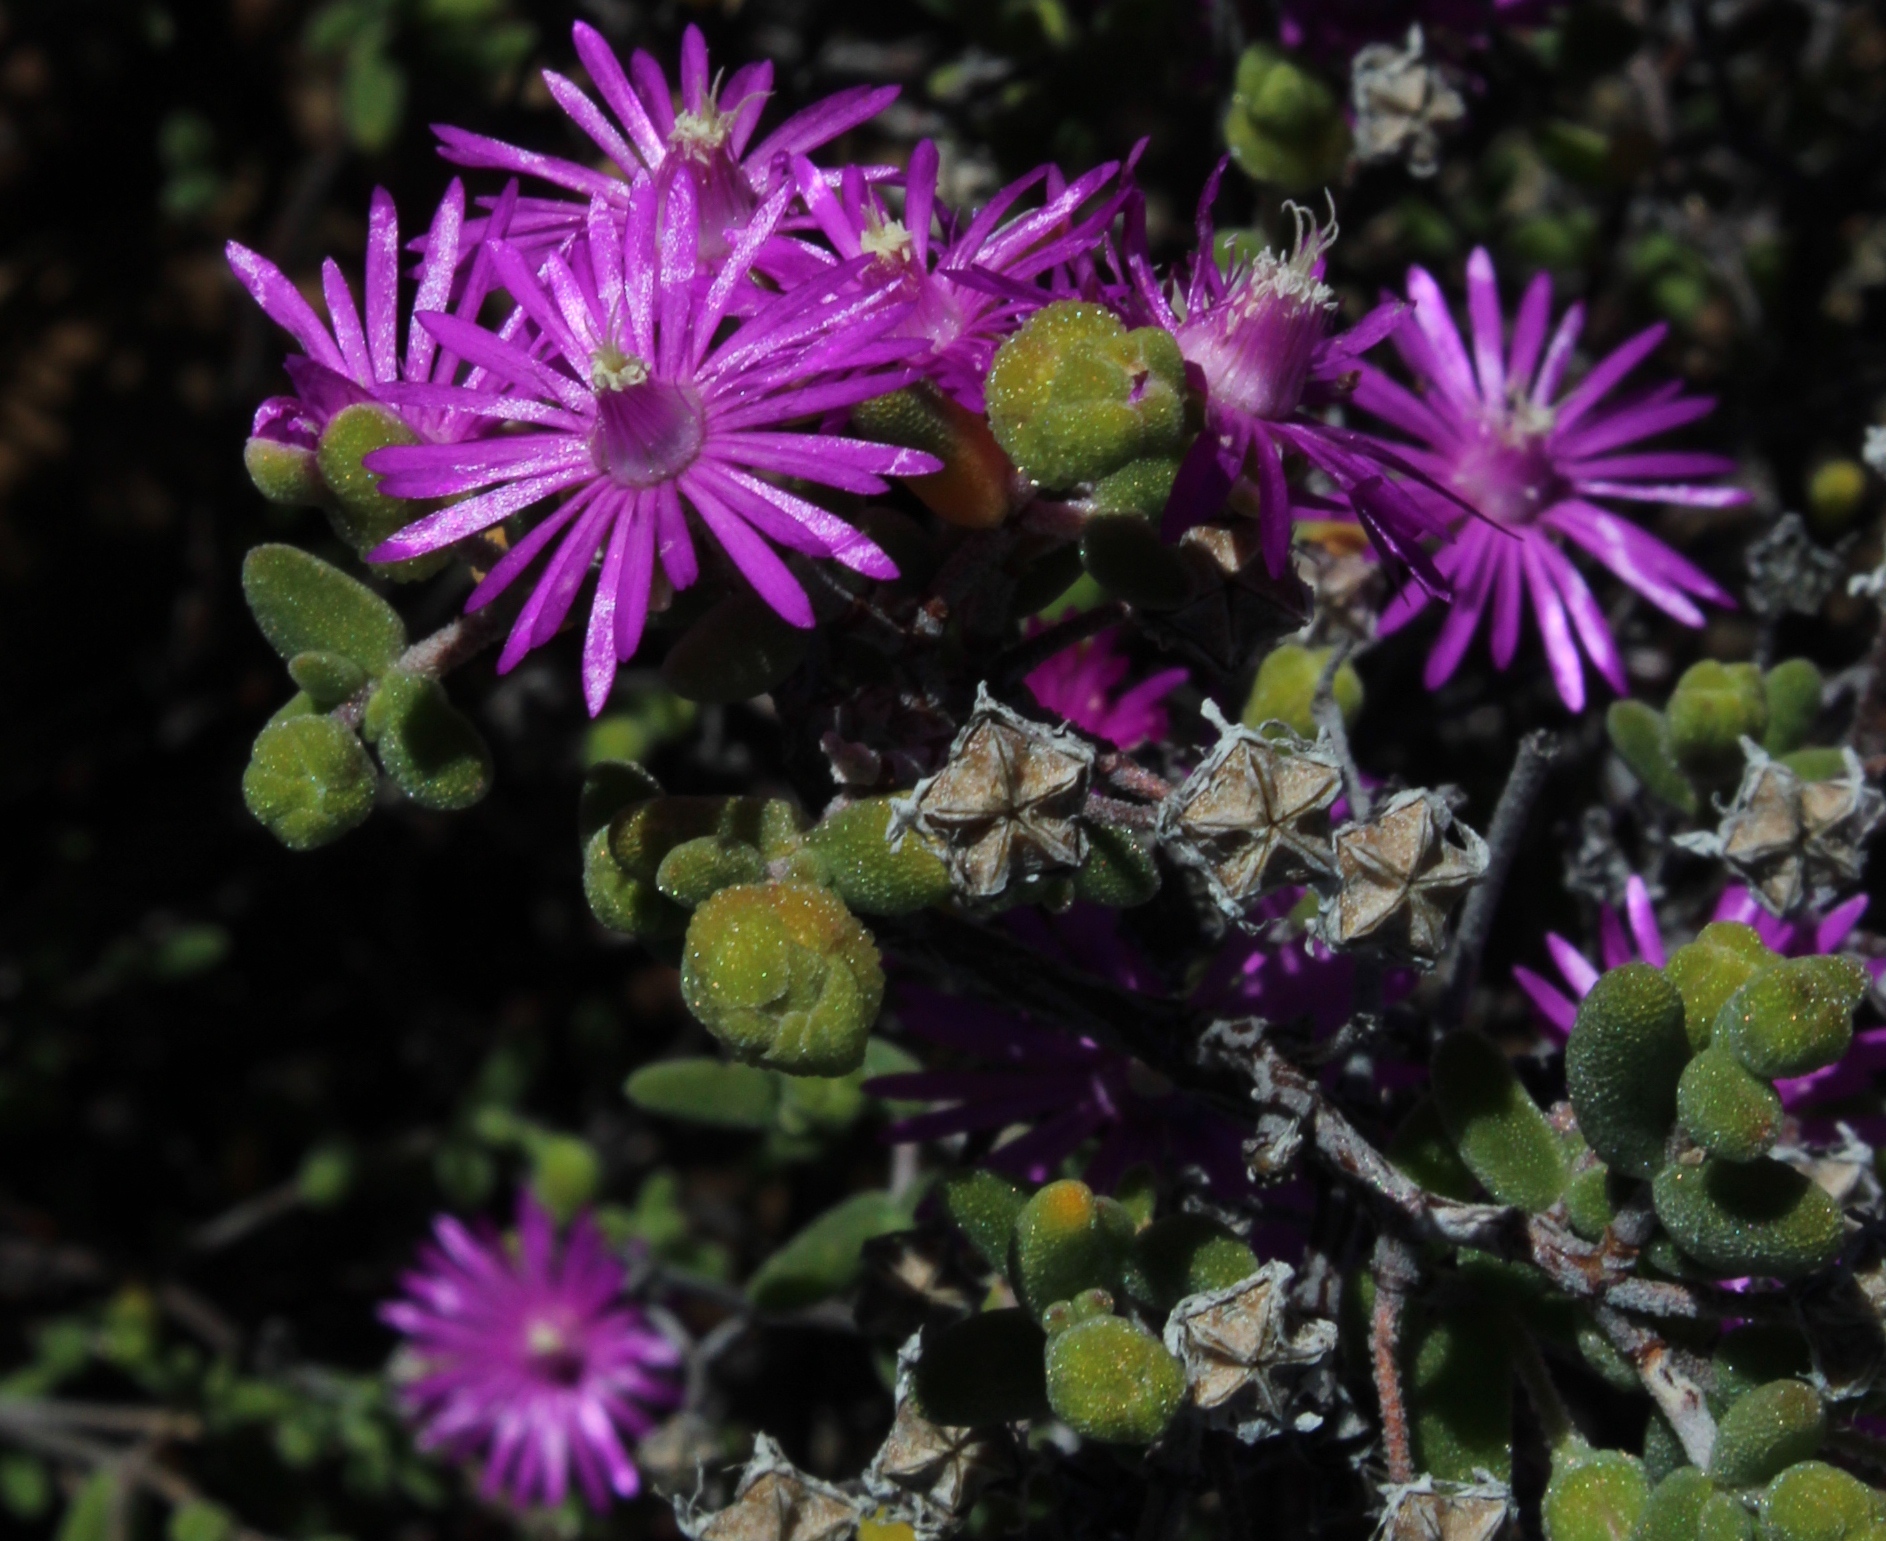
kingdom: Plantae
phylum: Tracheophyta
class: Magnoliopsida
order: Caryophyllales
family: Aizoaceae
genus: Drosanthemum
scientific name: Drosanthemum glabrescens
